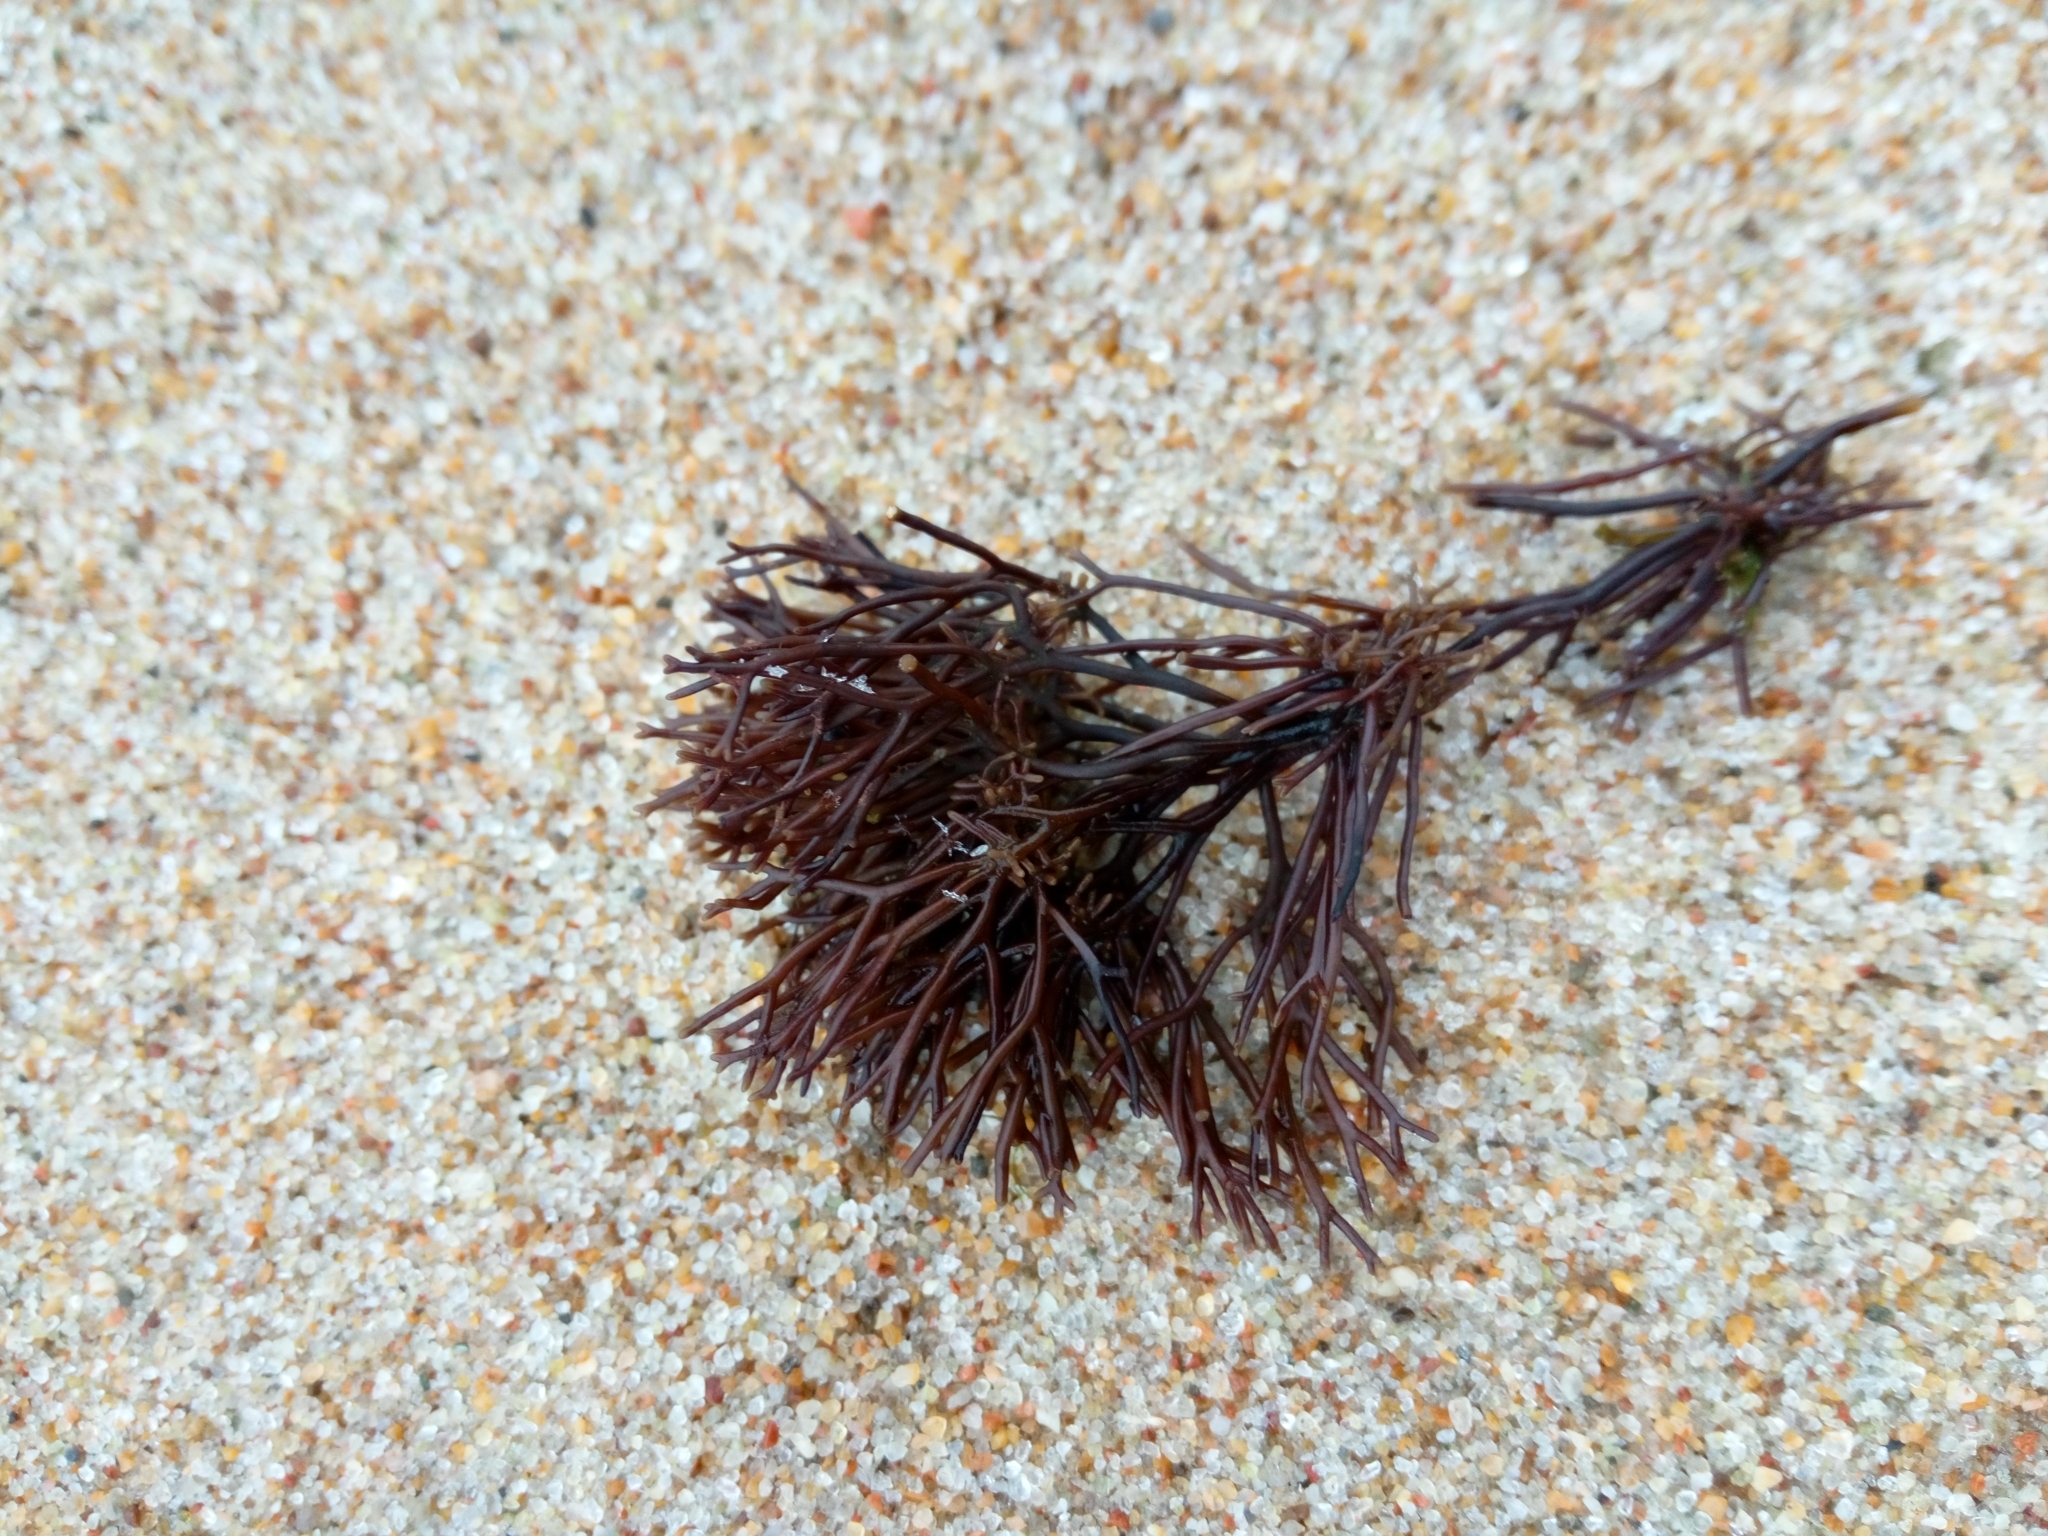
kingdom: Plantae
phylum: Rhodophyta
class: Florideophyceae
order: Gigartinales
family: Furcellariaceae
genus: Furcellaria
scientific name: Furcellaria lumbricalis
